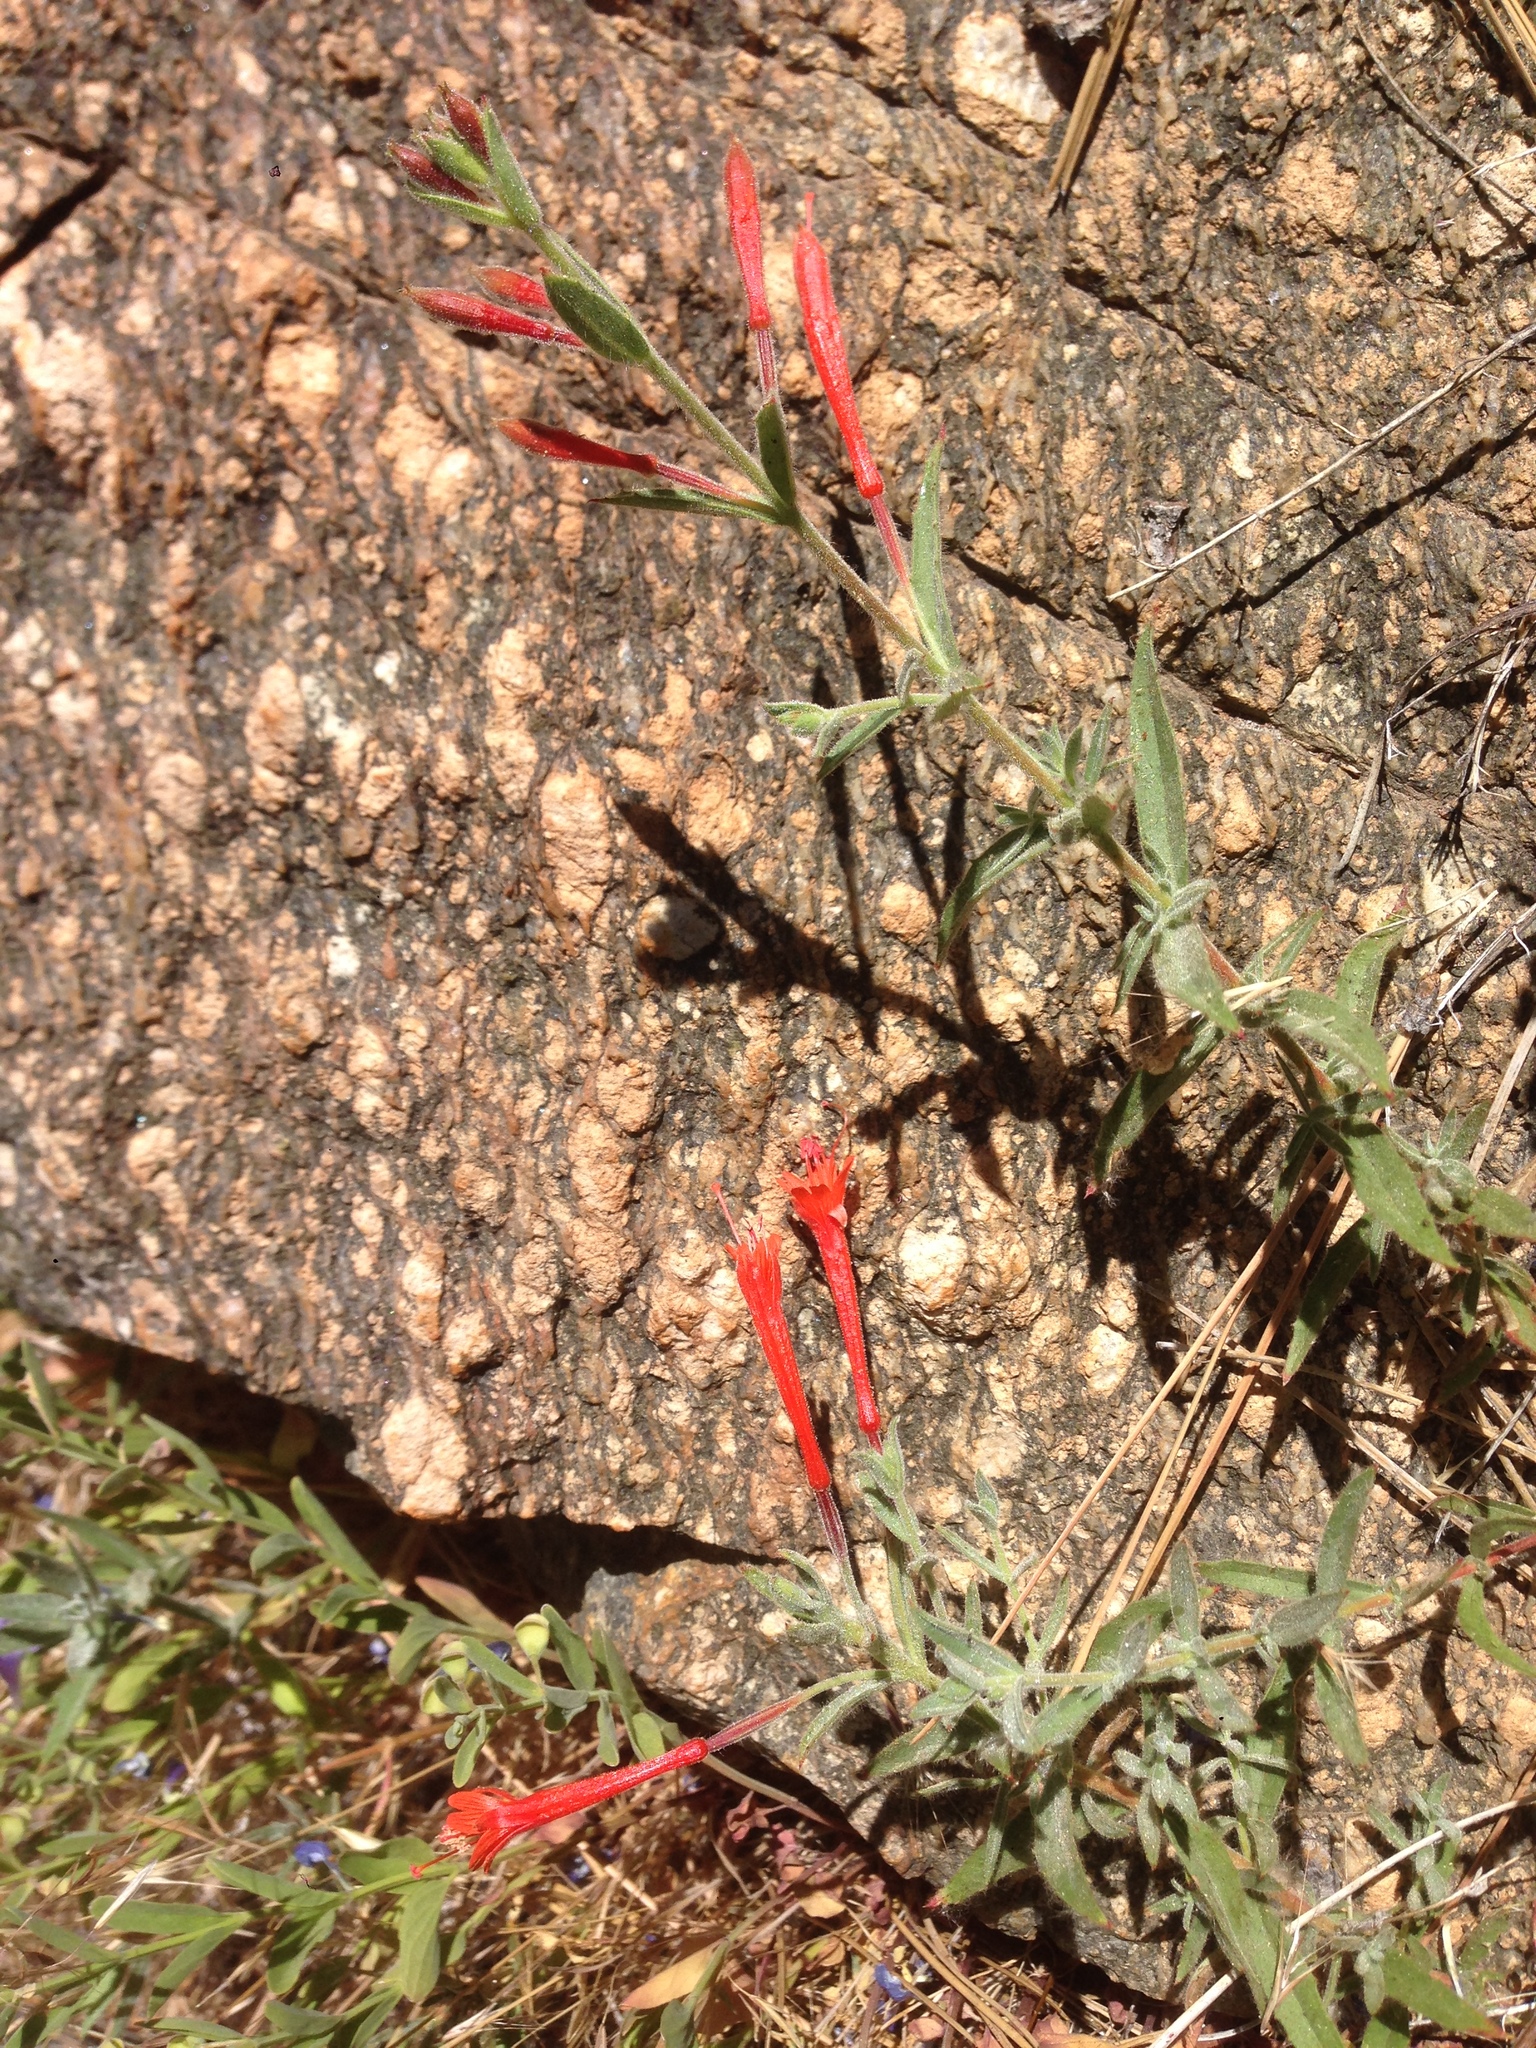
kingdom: Plantae
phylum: Tracheophyta
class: Magnoliopsida
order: Myrtales
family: Onagraceae
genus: Epilobium
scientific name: Epilobium canum
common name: California-fuchsia
